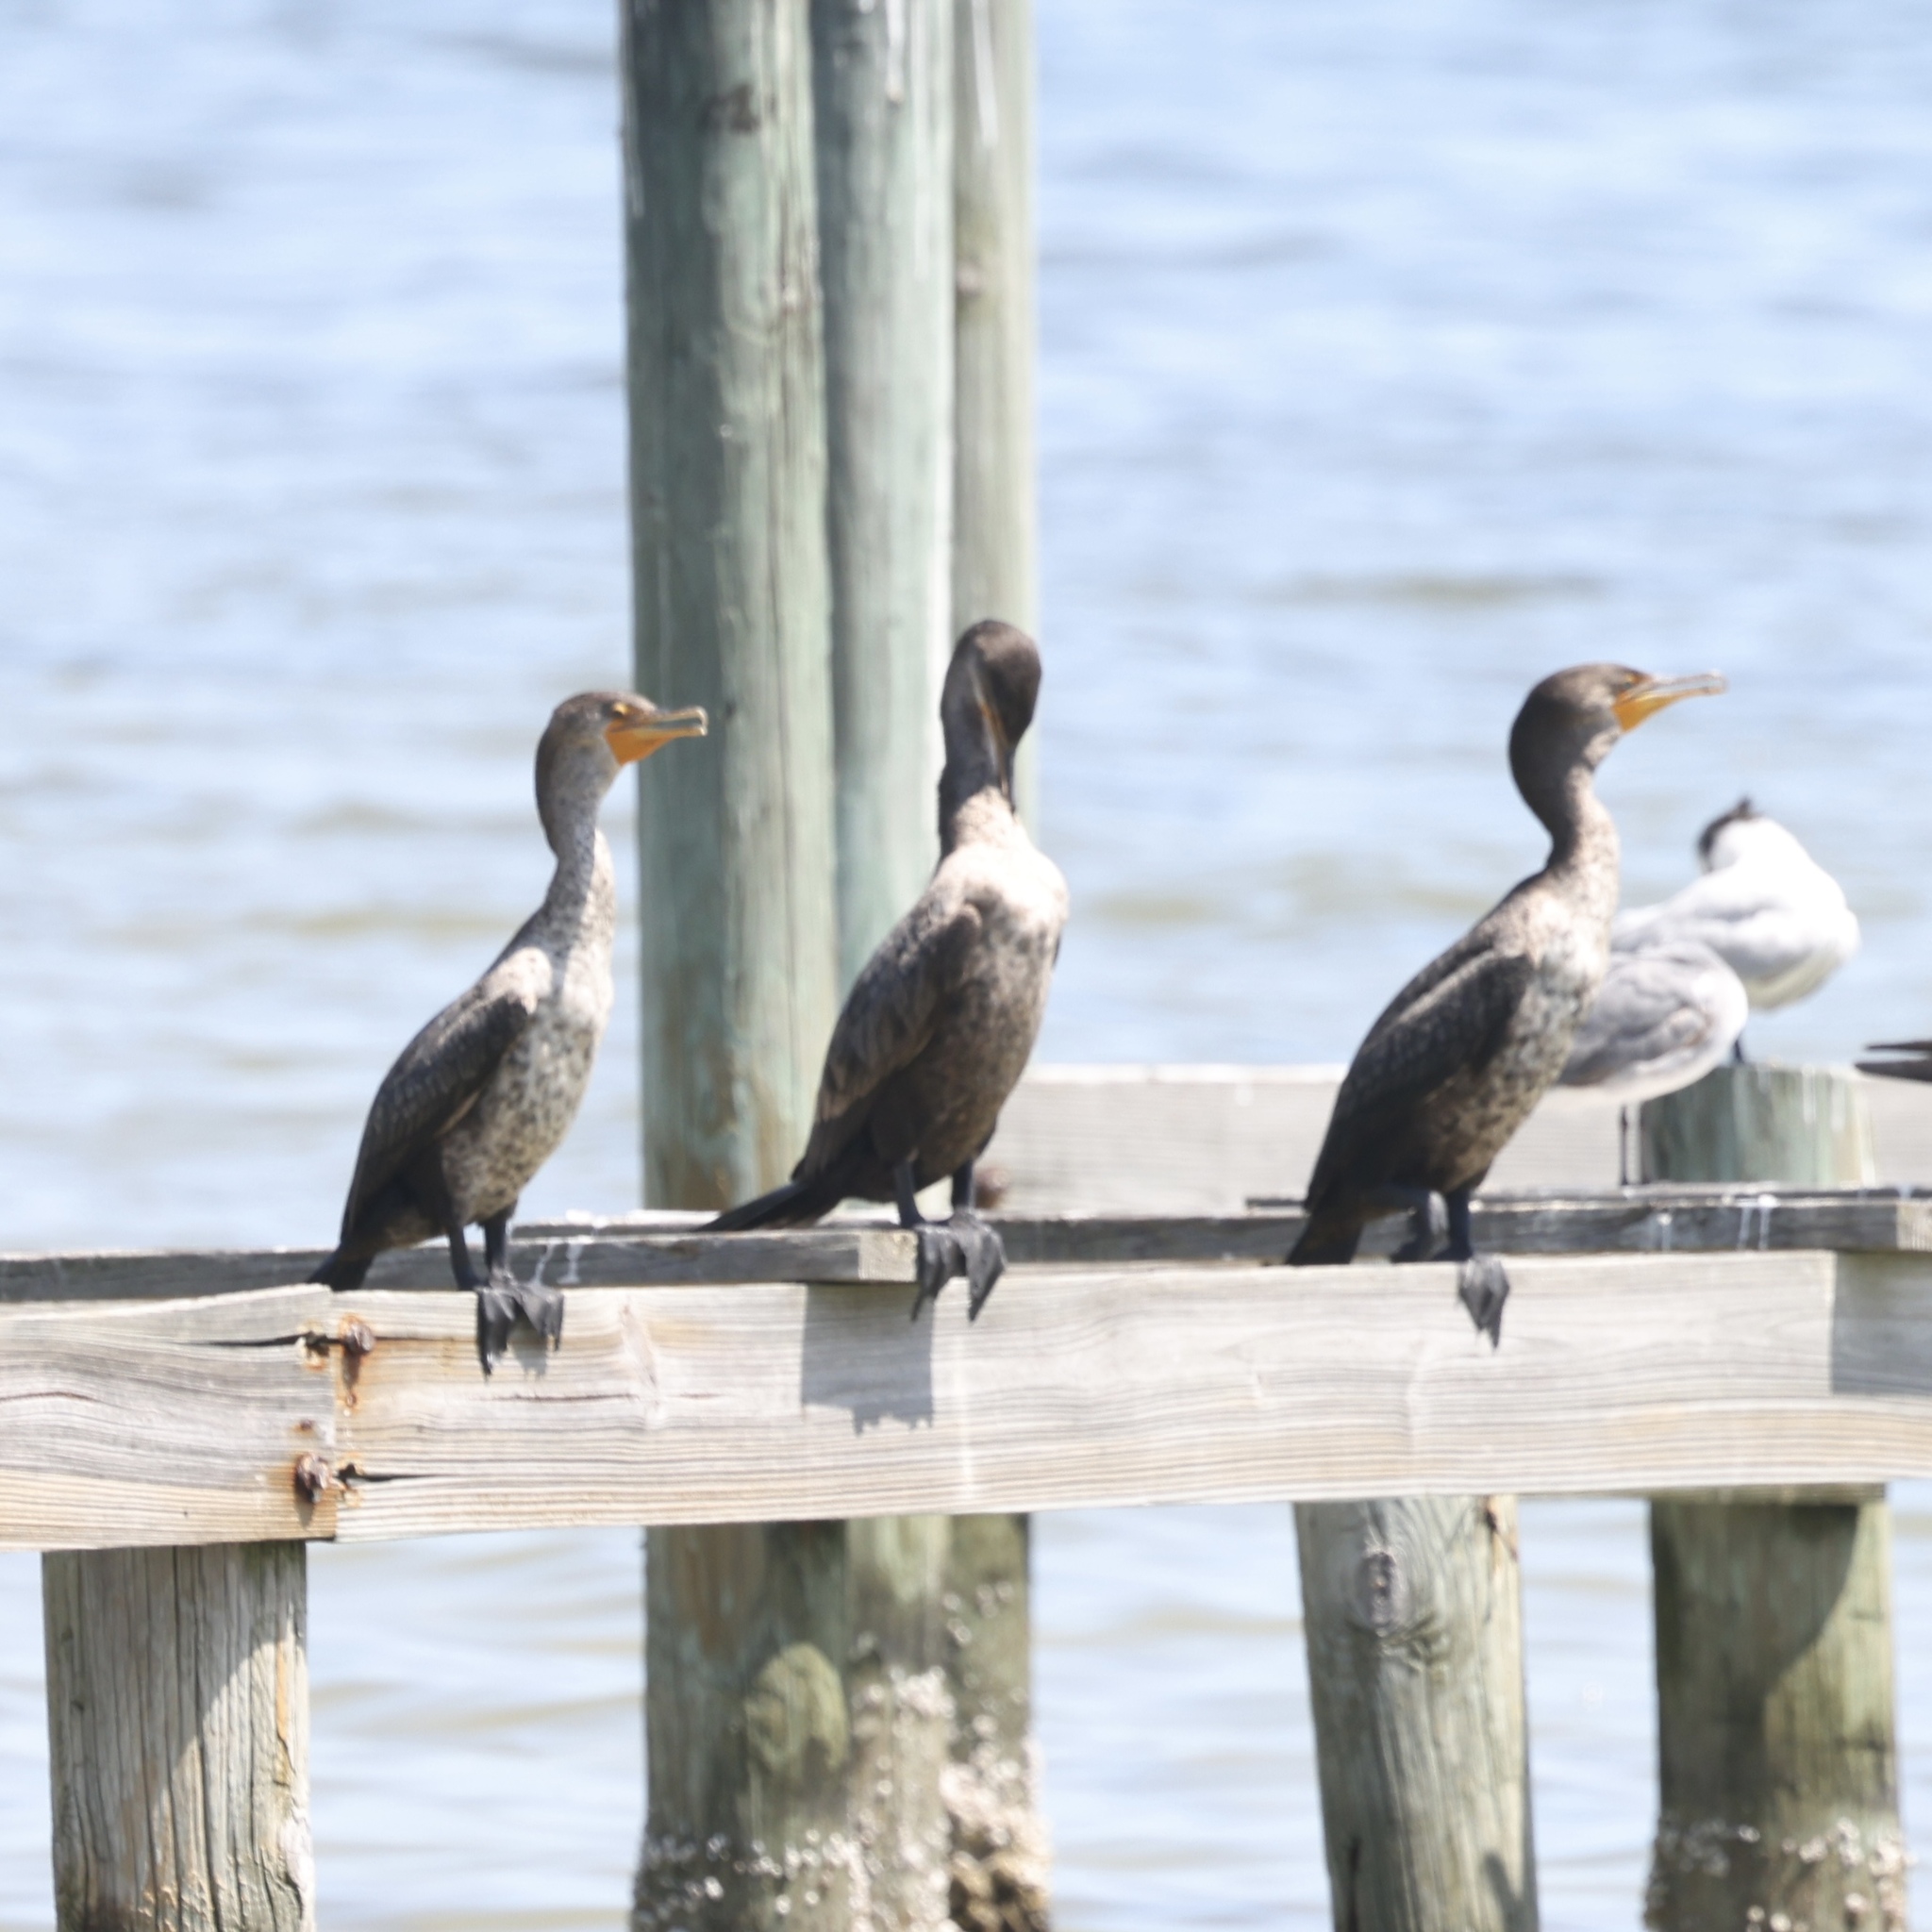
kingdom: Animalia
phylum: Chordata
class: Aves
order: Suliformes
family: Phalacrocoracidae
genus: Phalacrocorax
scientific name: Phalacrocorax auritus
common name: Double-crested cormorant
